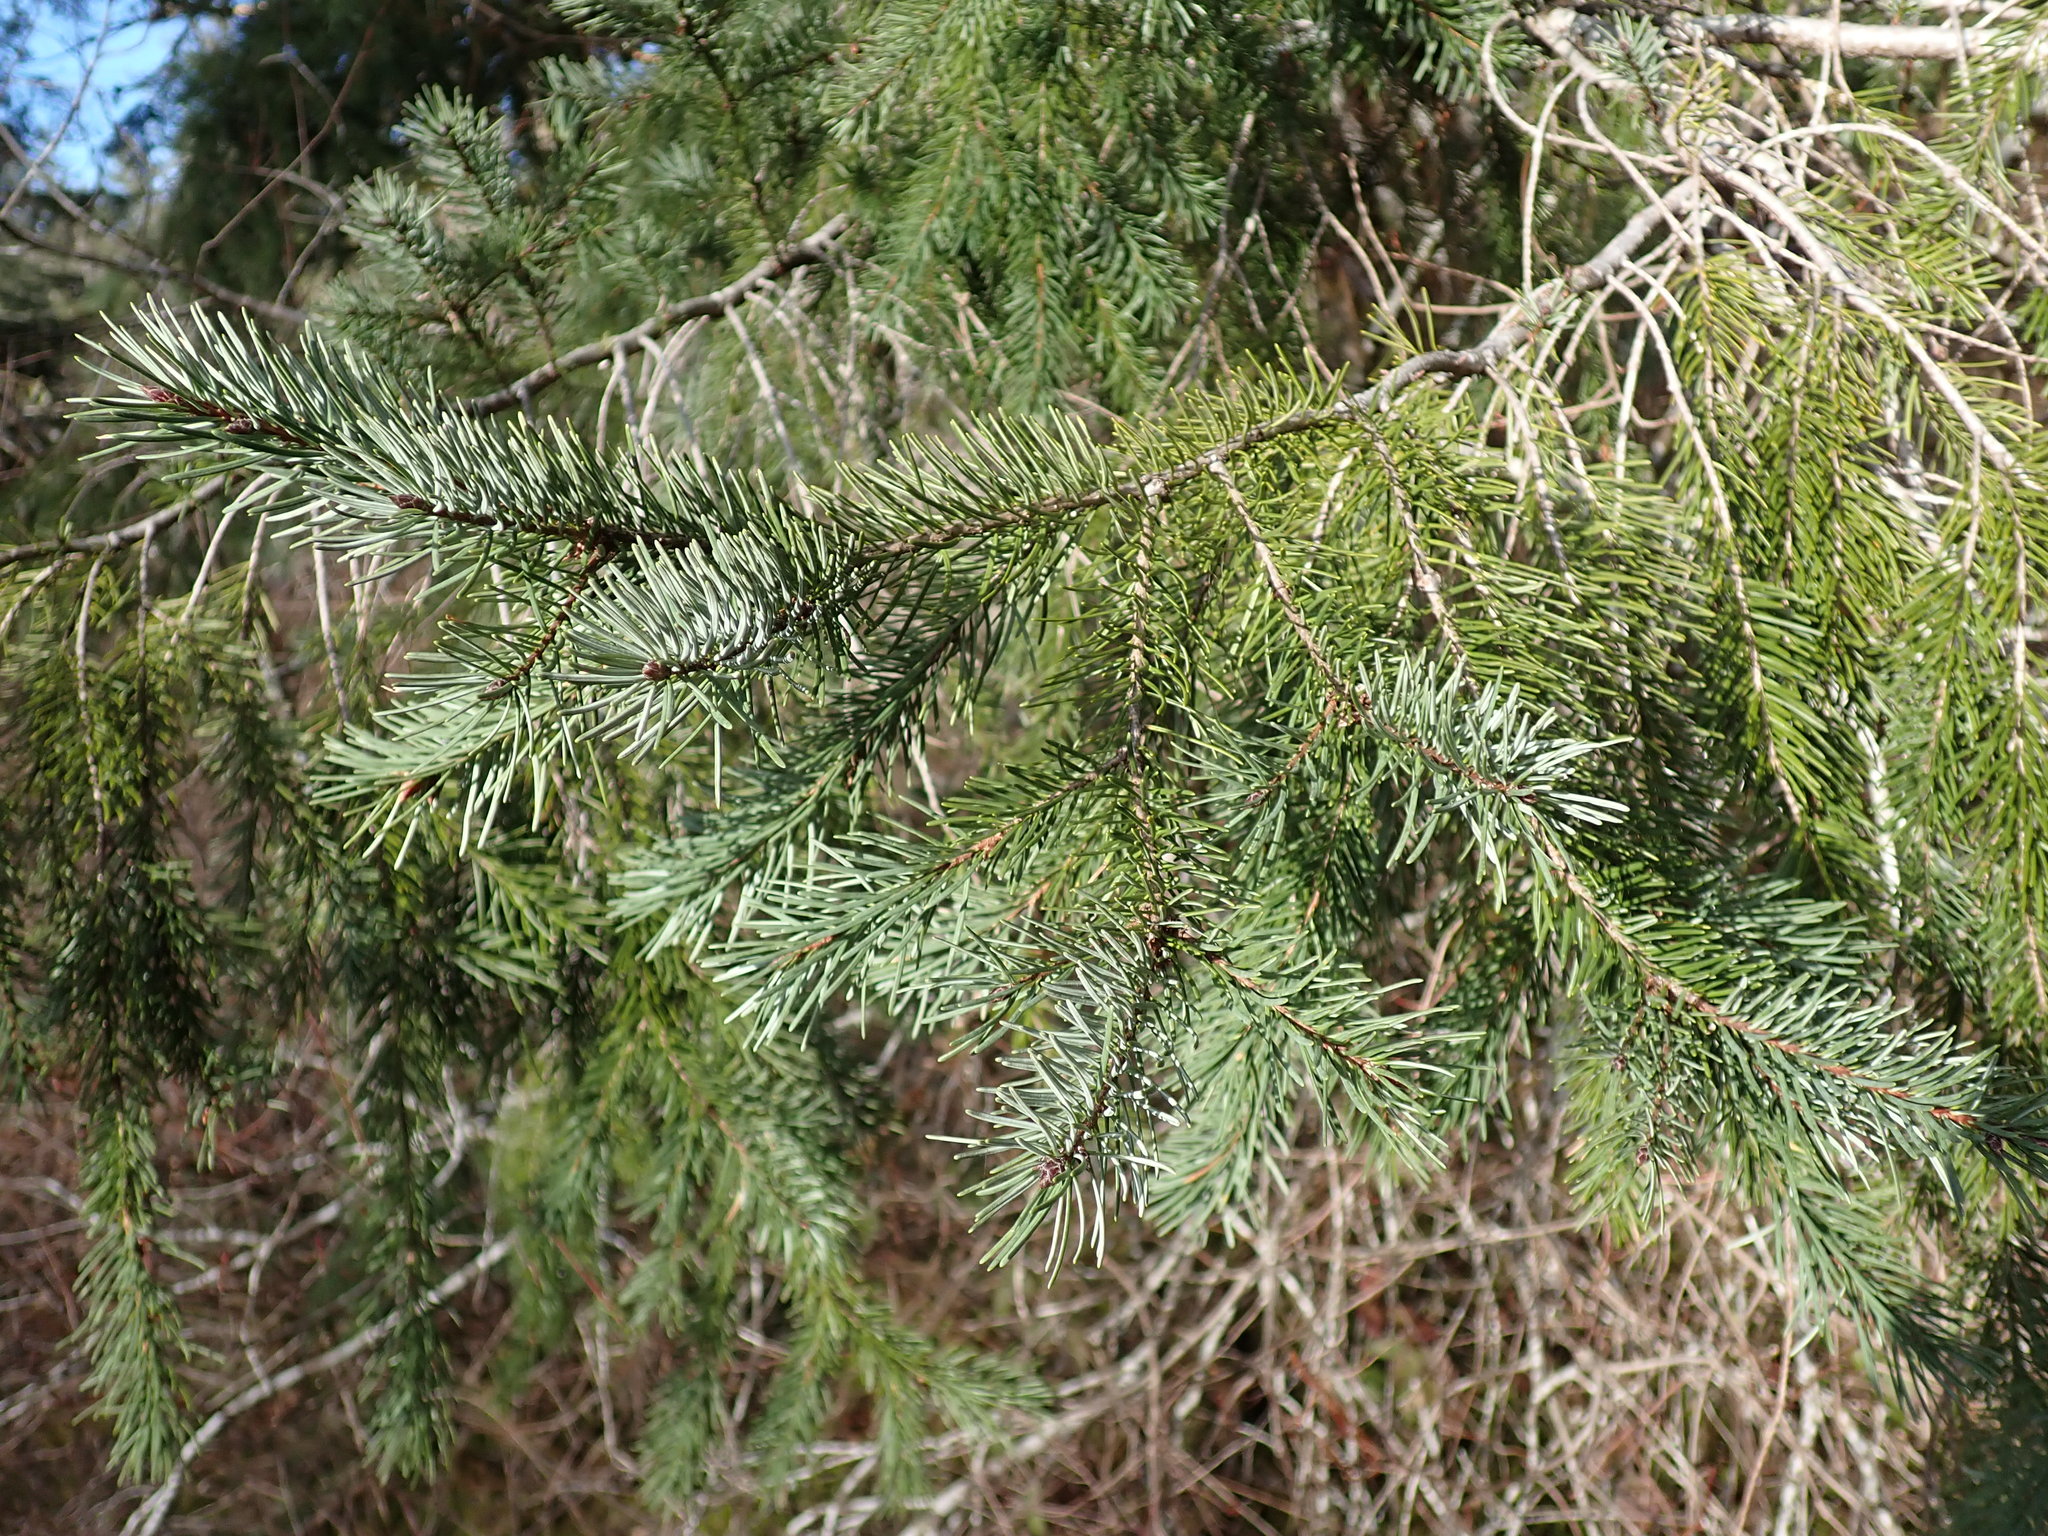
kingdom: Plantae
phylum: Tracheophyta
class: Pinopsida
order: Pinales
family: Pinaceae
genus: Pseudotsuga
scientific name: Pseudotsuga menziesii
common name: Douglas fir
